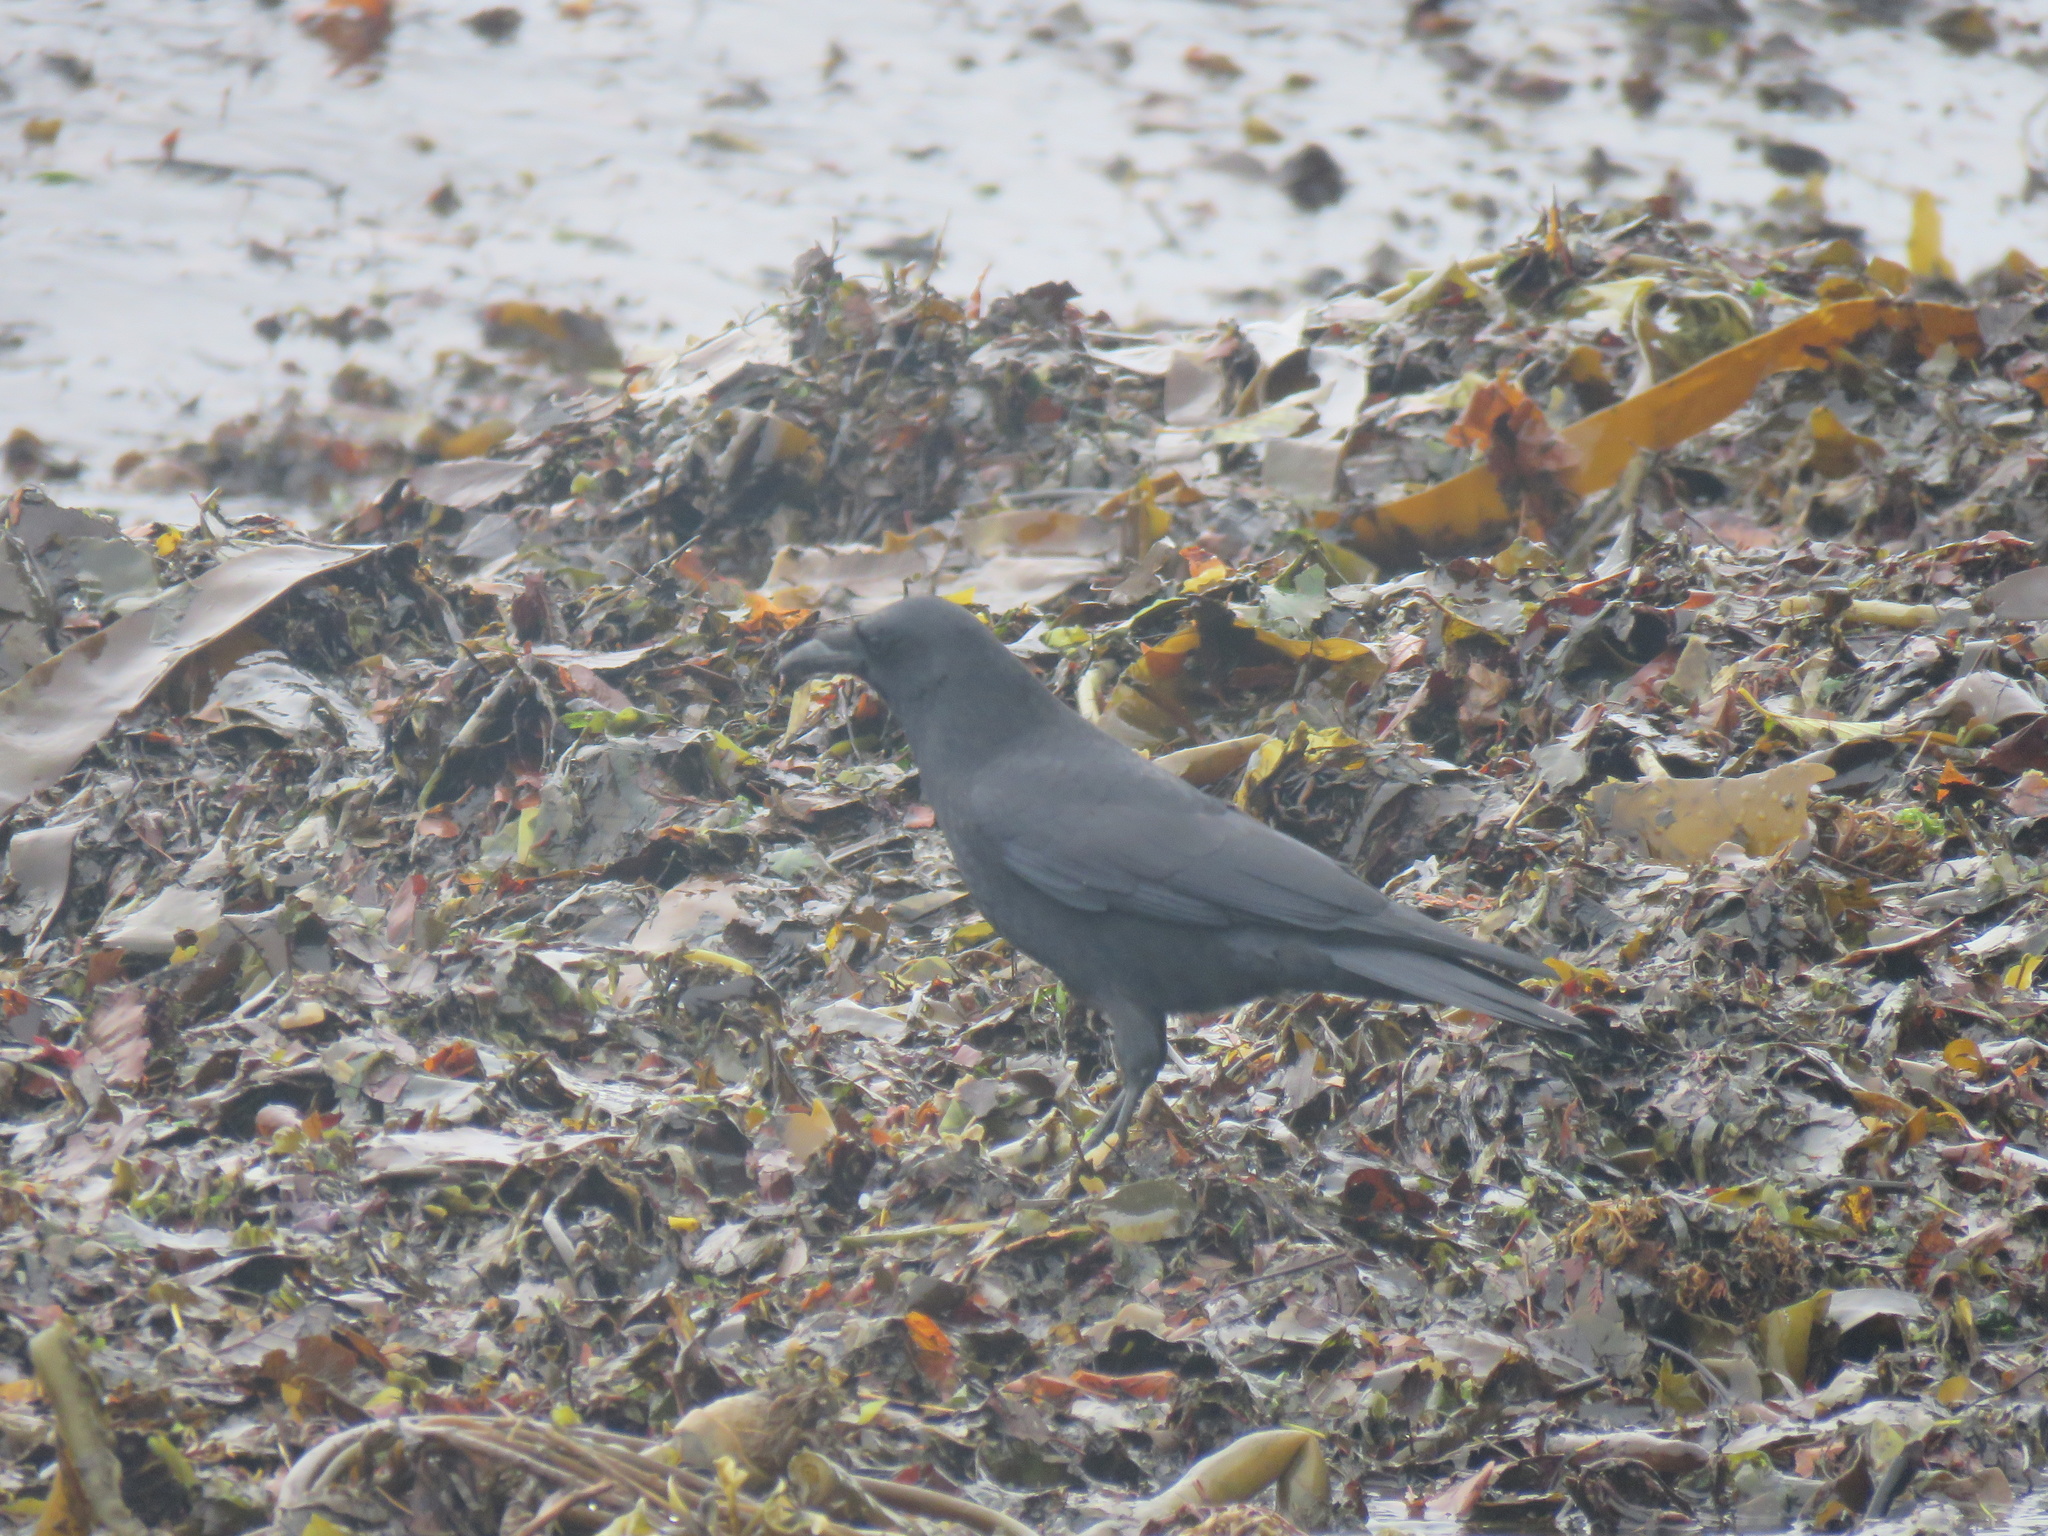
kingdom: Animalia
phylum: Chordata
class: Aves
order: Passeriformes
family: Corvidae
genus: Corvus
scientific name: Corvus brachyrhynchos
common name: American crow
